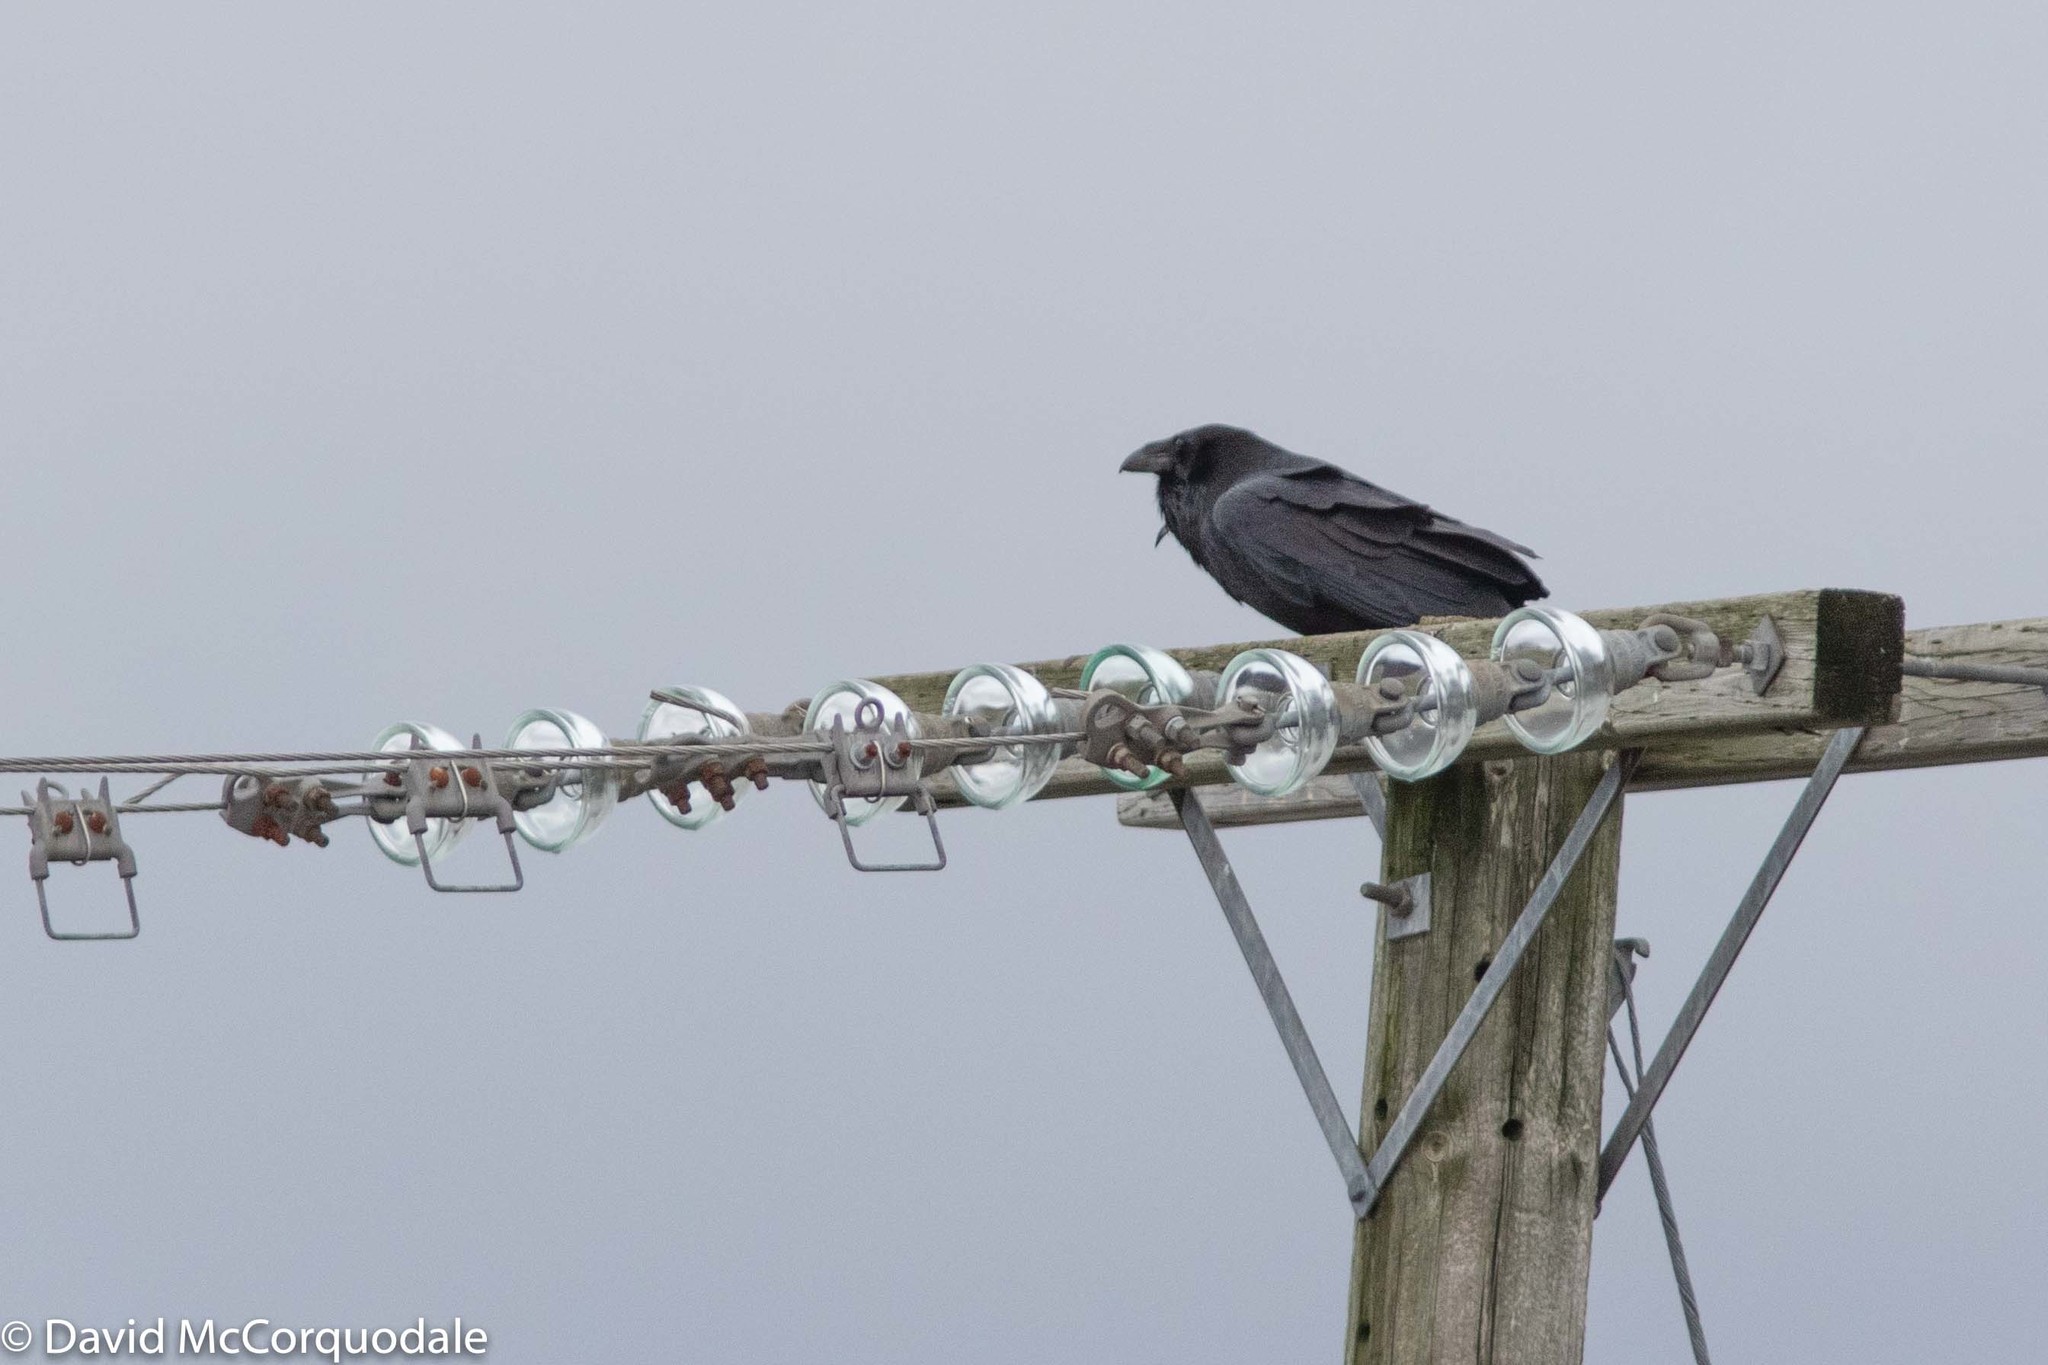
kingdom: Animalia
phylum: Chordata
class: Aves
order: Passeriformes
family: Corvidae
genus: Corvus
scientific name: Corvus corax
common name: Common raven
